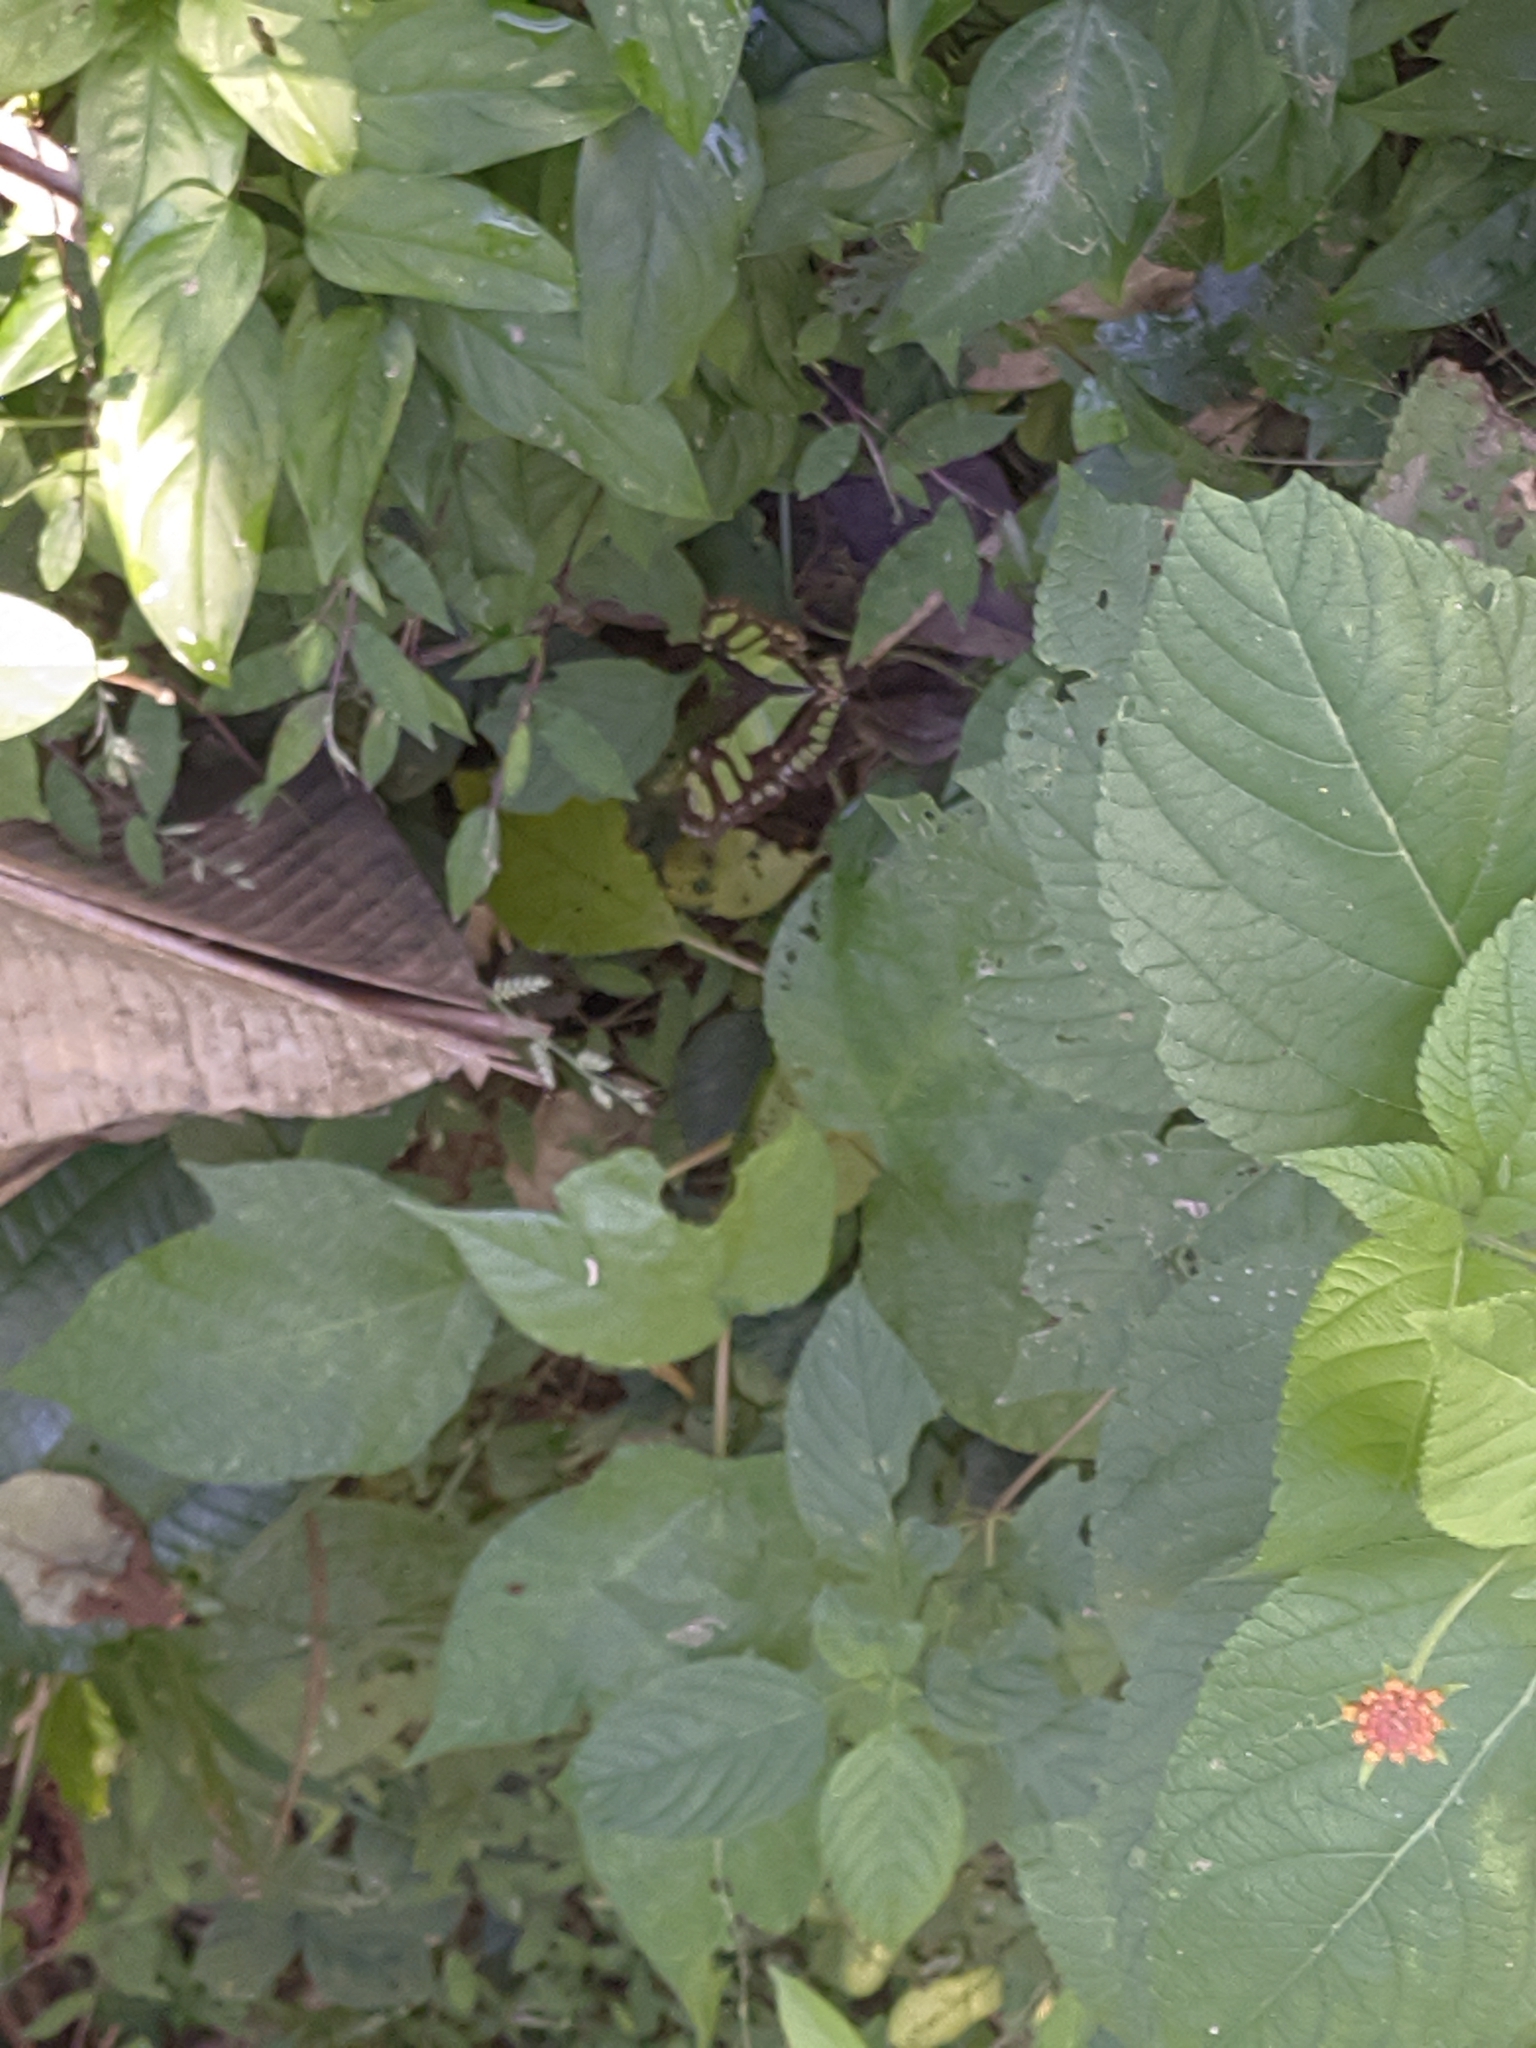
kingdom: Animalia
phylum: Arthropoda
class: Insecta
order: Lepidoptera
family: Nymphalidae
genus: Siproeta
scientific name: Siproeta stelenes
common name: Malachite
